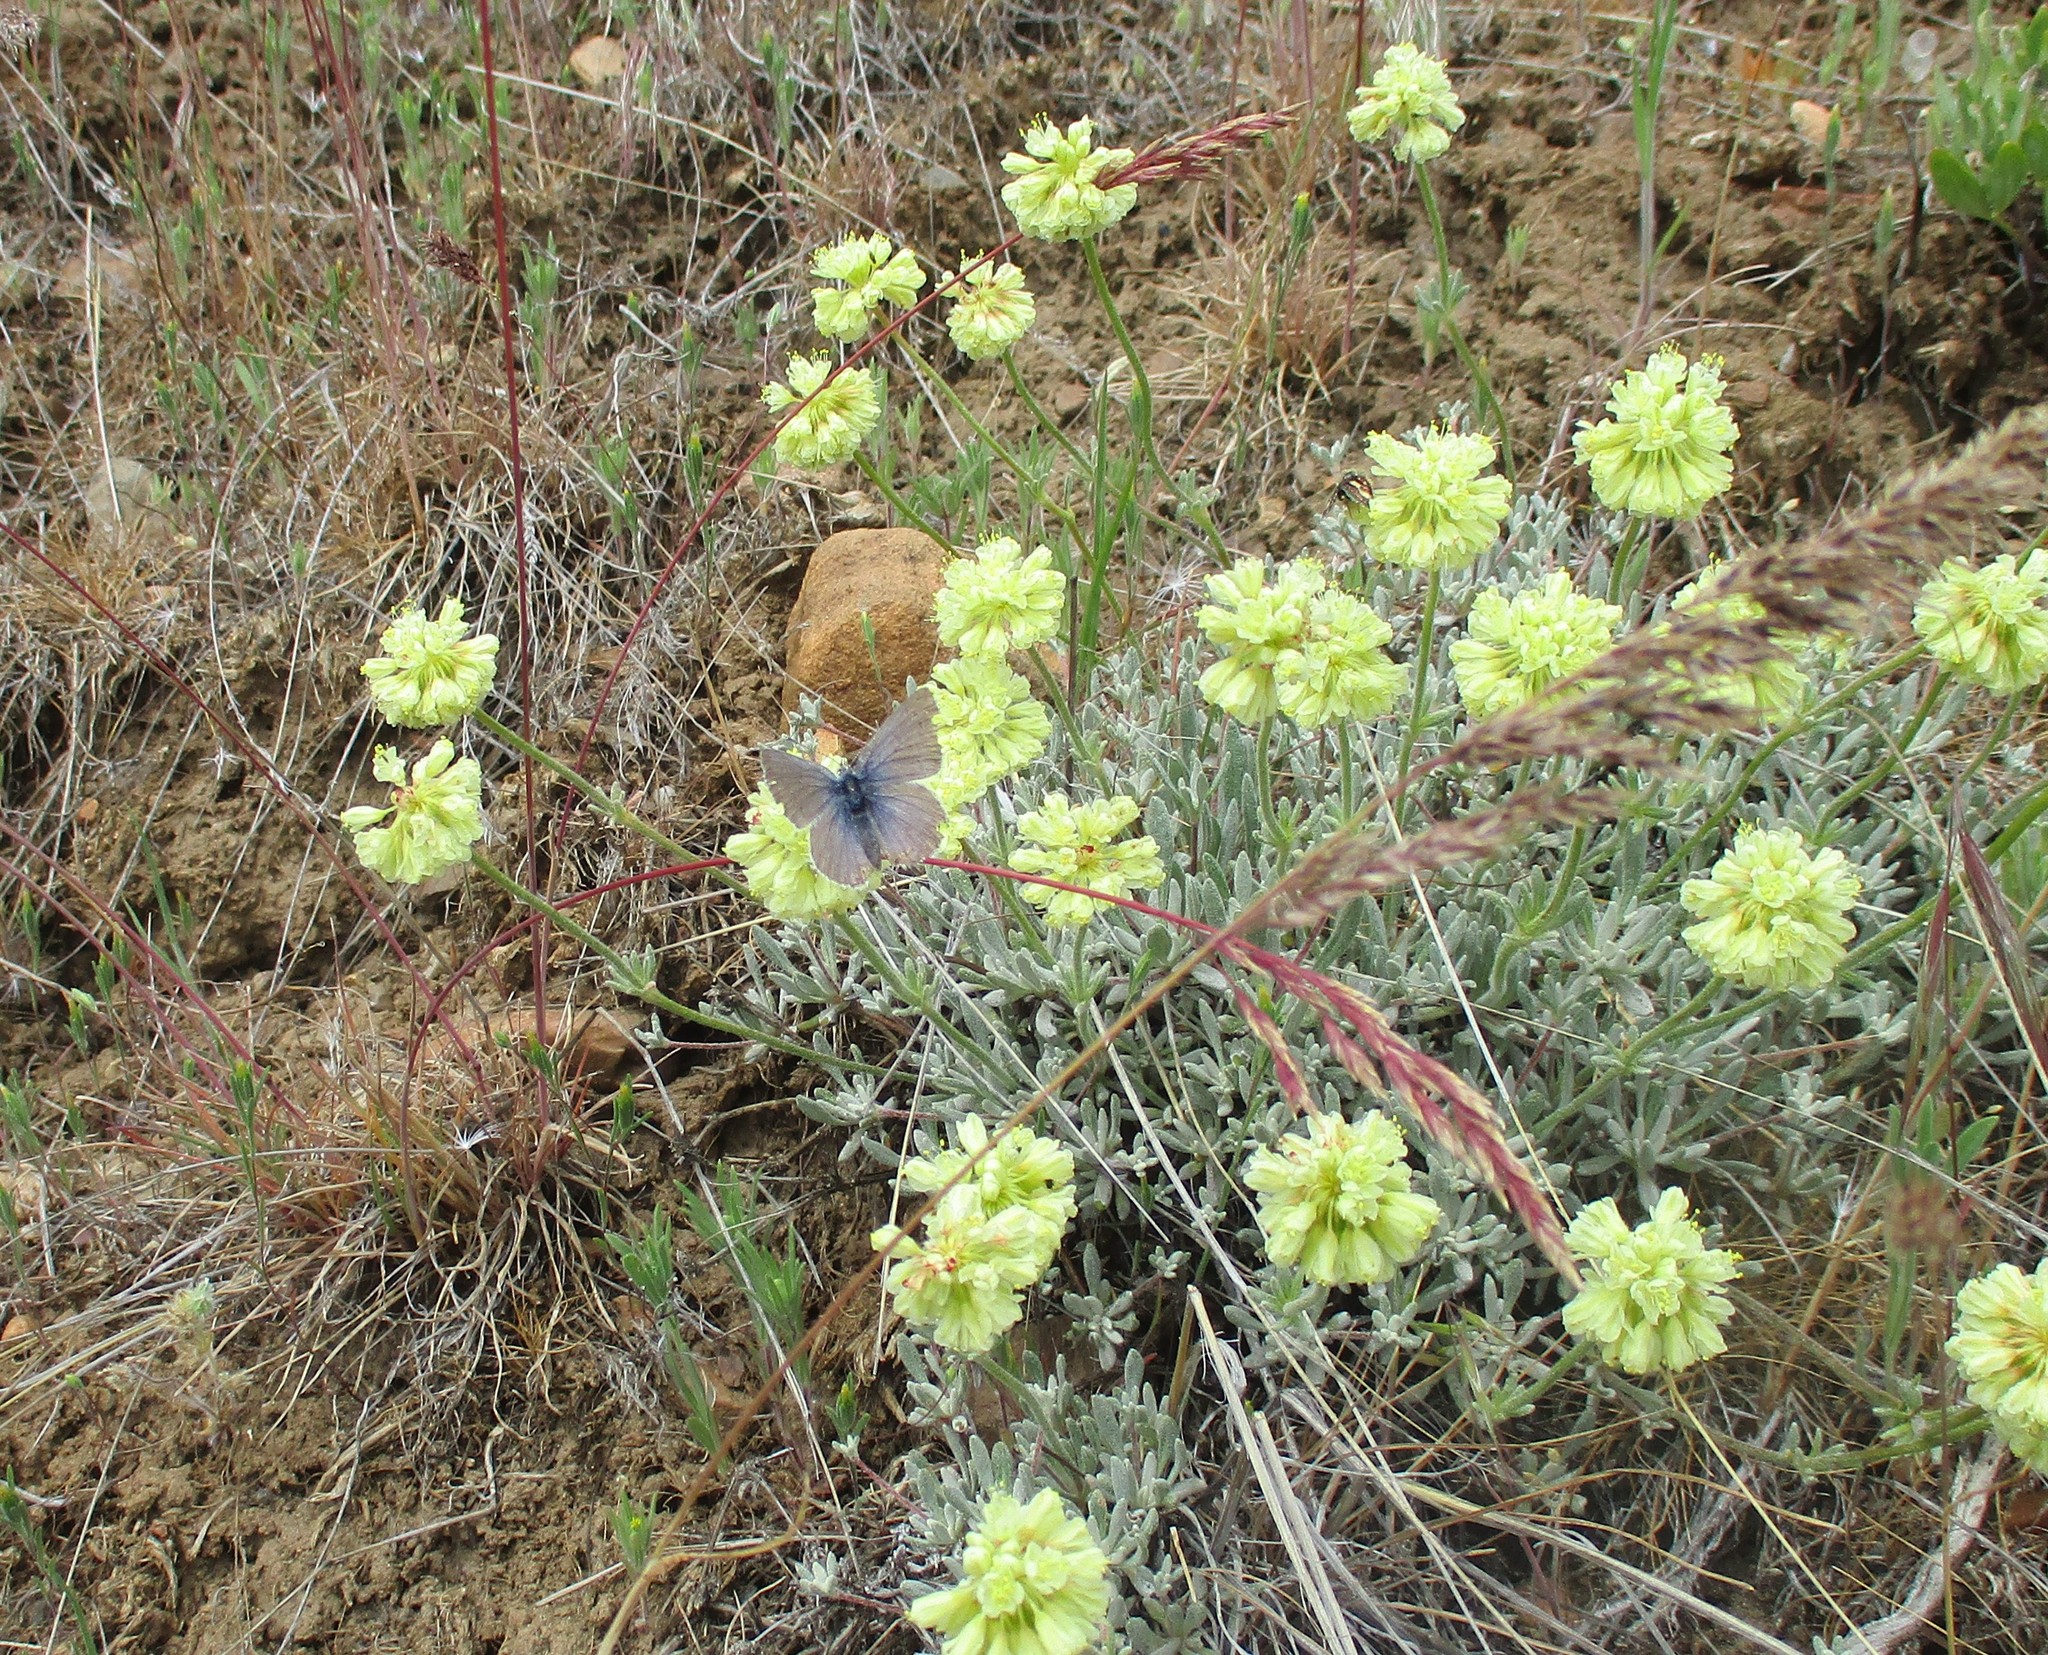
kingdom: Animalia
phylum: Arthropoda
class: Insecta
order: Lepidoptera
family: Lycaenidae
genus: Icaricia
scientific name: Icaricia icarioides
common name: Boisduval's blue
